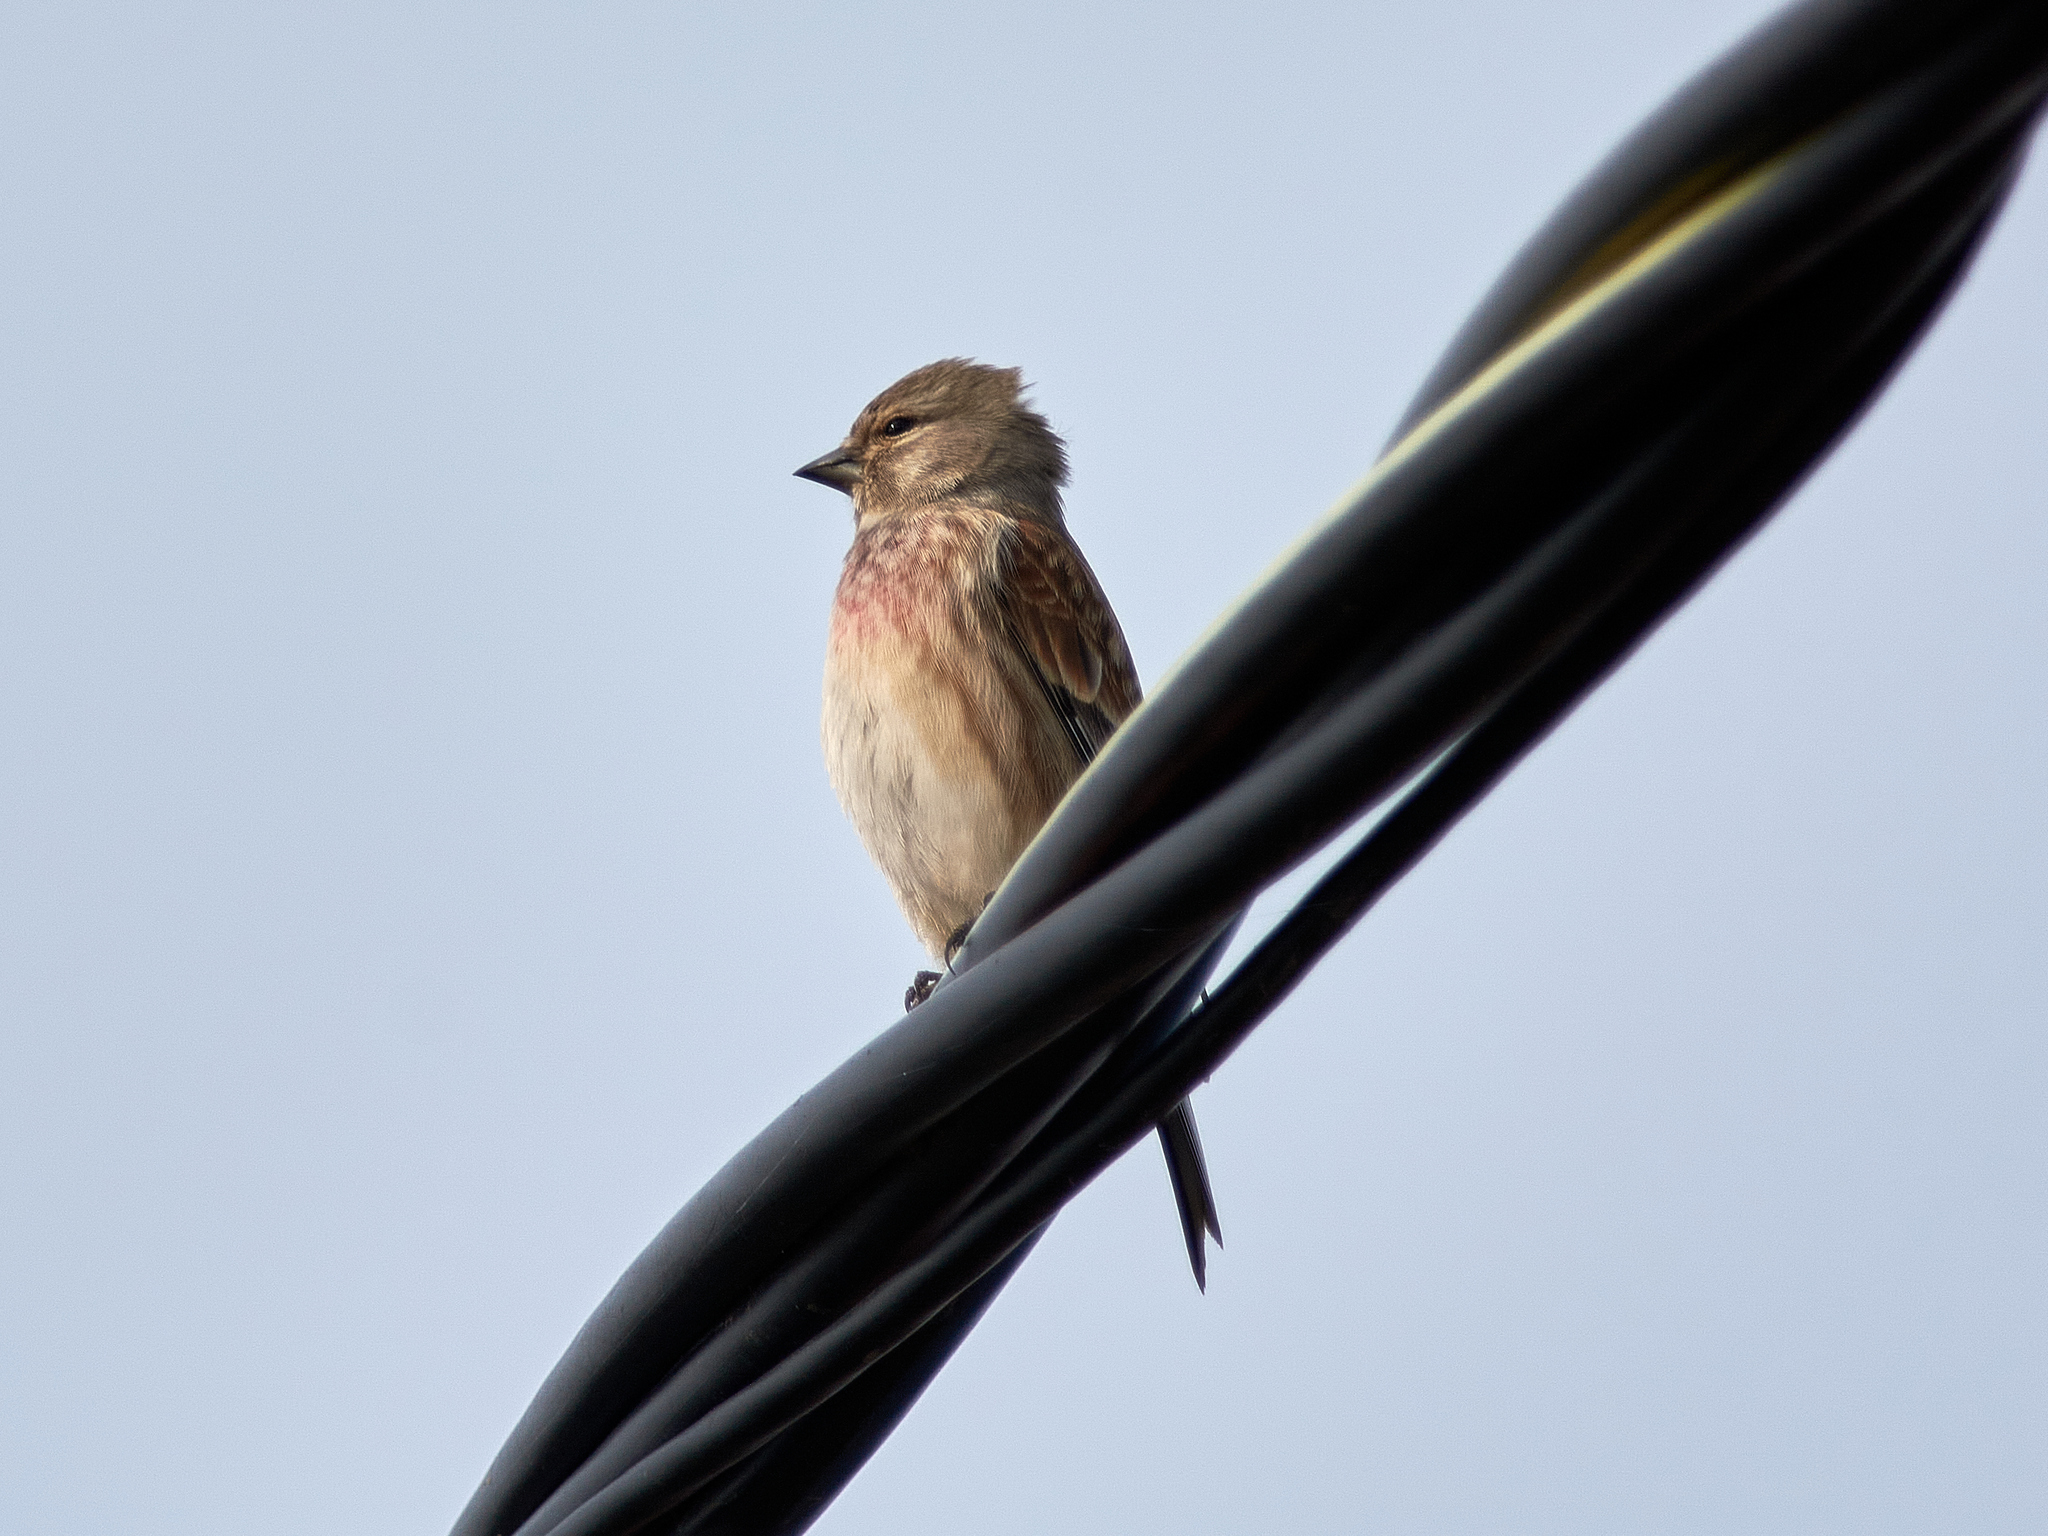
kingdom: Animalia
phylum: Chordata
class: Aves
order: Passeriformes
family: Fringillidae
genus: Linaria
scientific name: Linaria cannabina
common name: Common linnet
